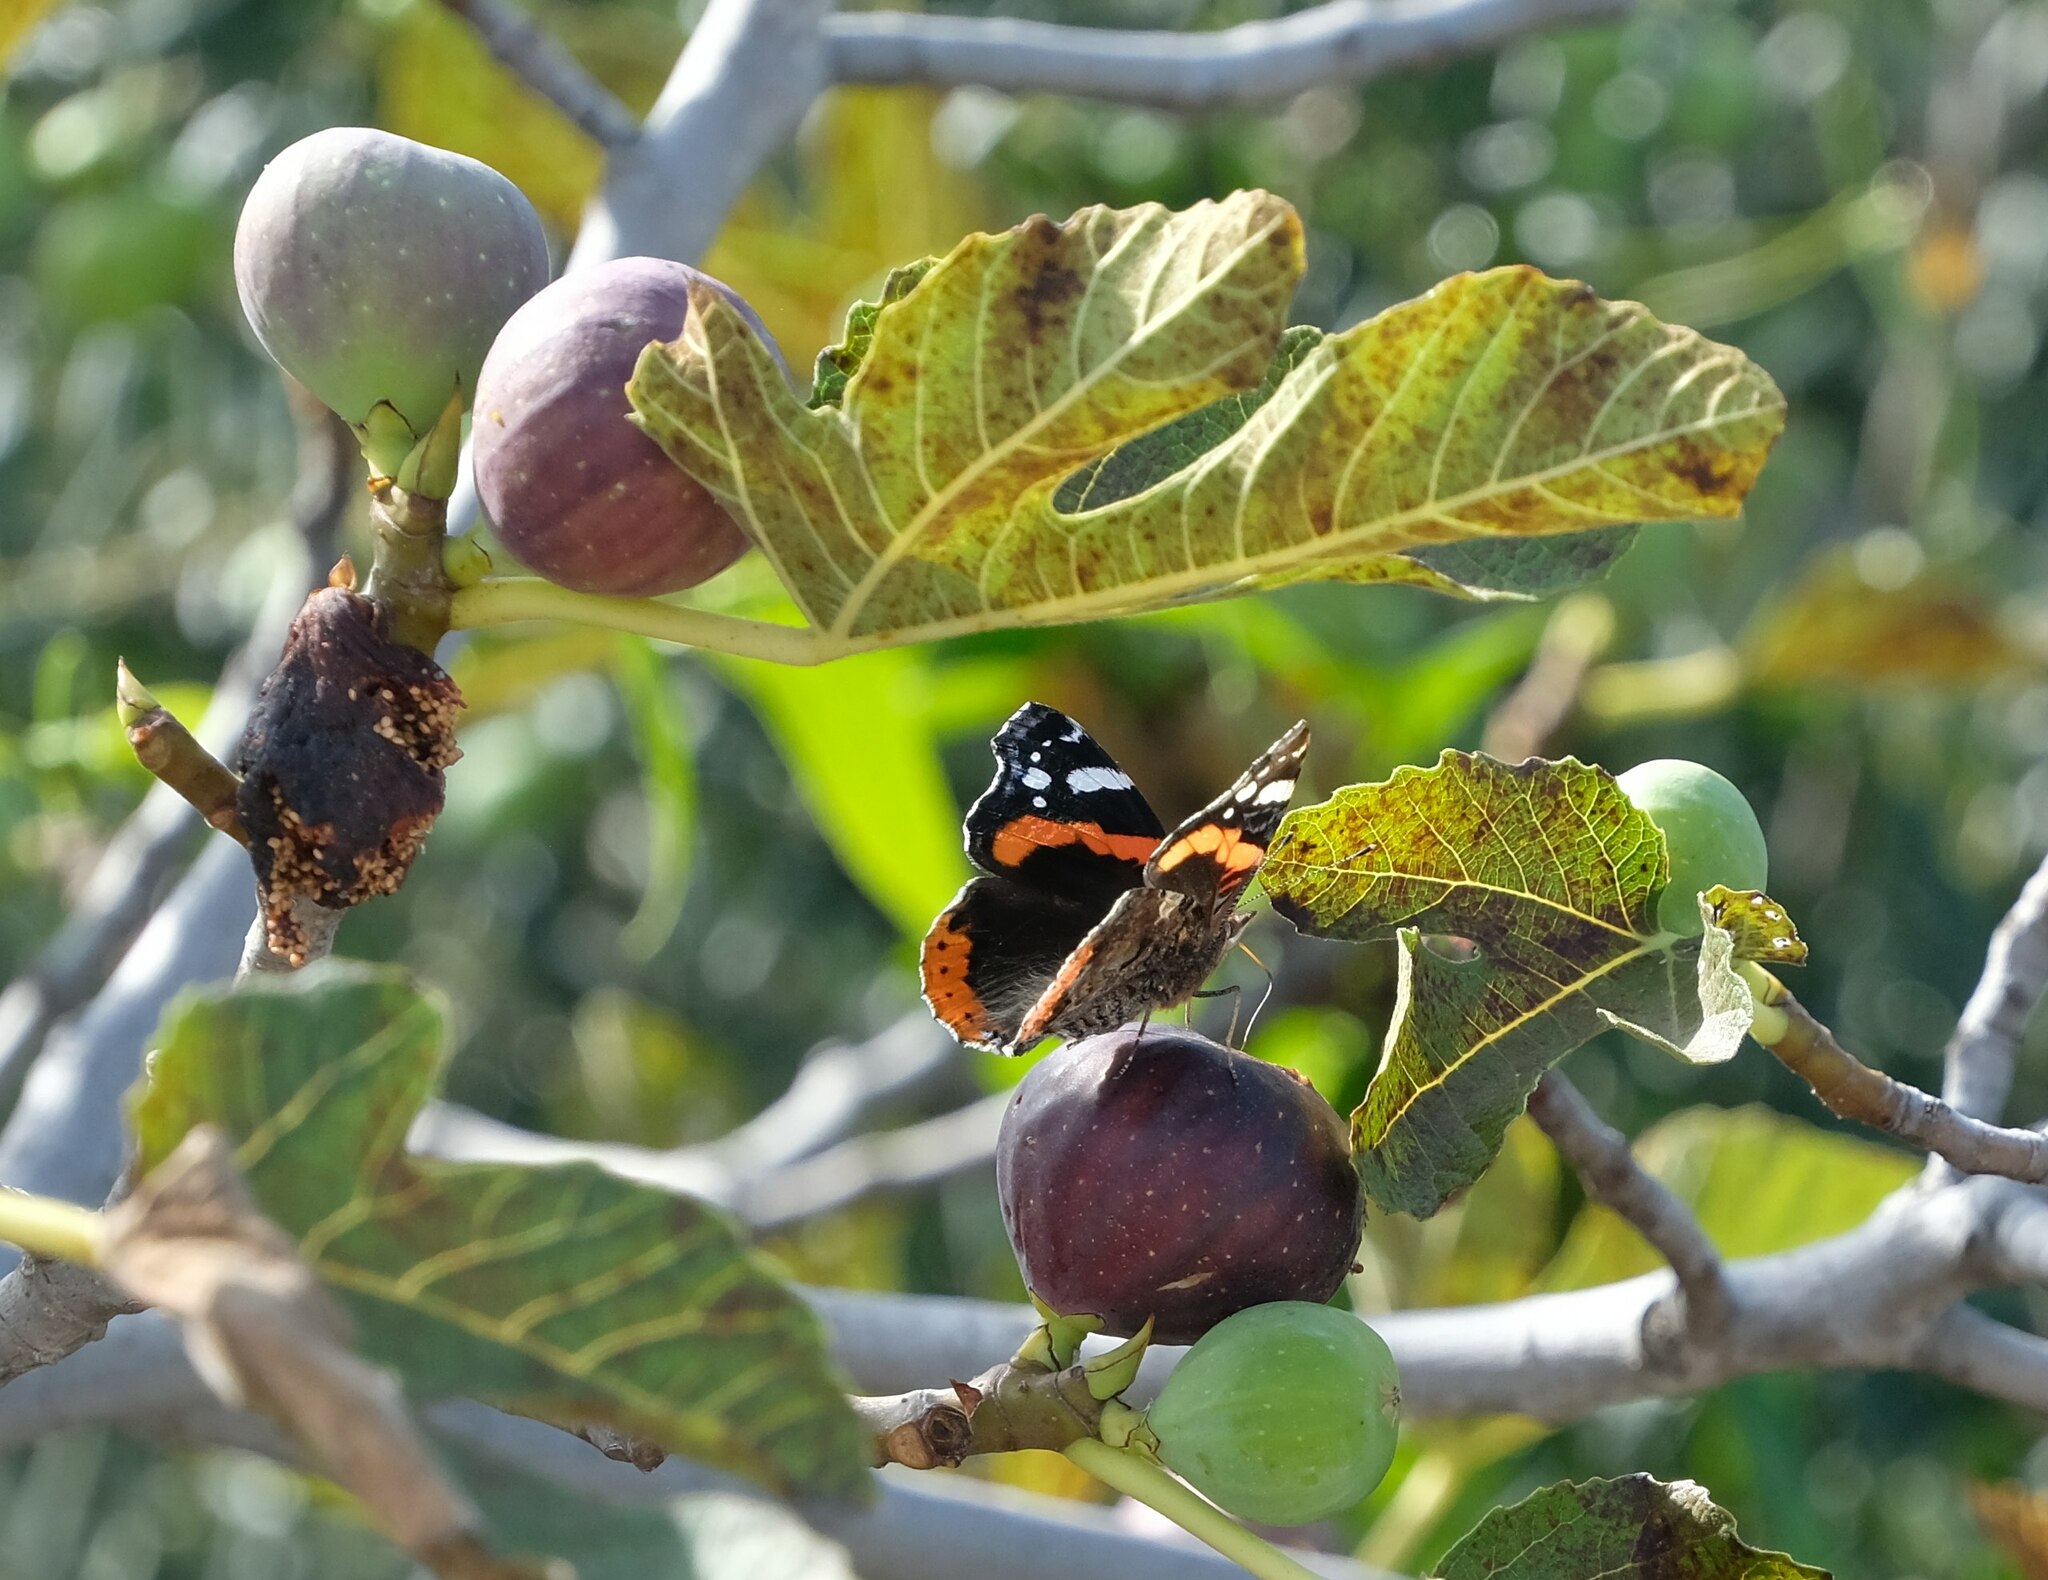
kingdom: Animalia
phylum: Arthropoda
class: Insecta
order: Lepidoptera
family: Nymphalidae
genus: Vanessa
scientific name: Vanessa atalanta
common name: Red admiral
